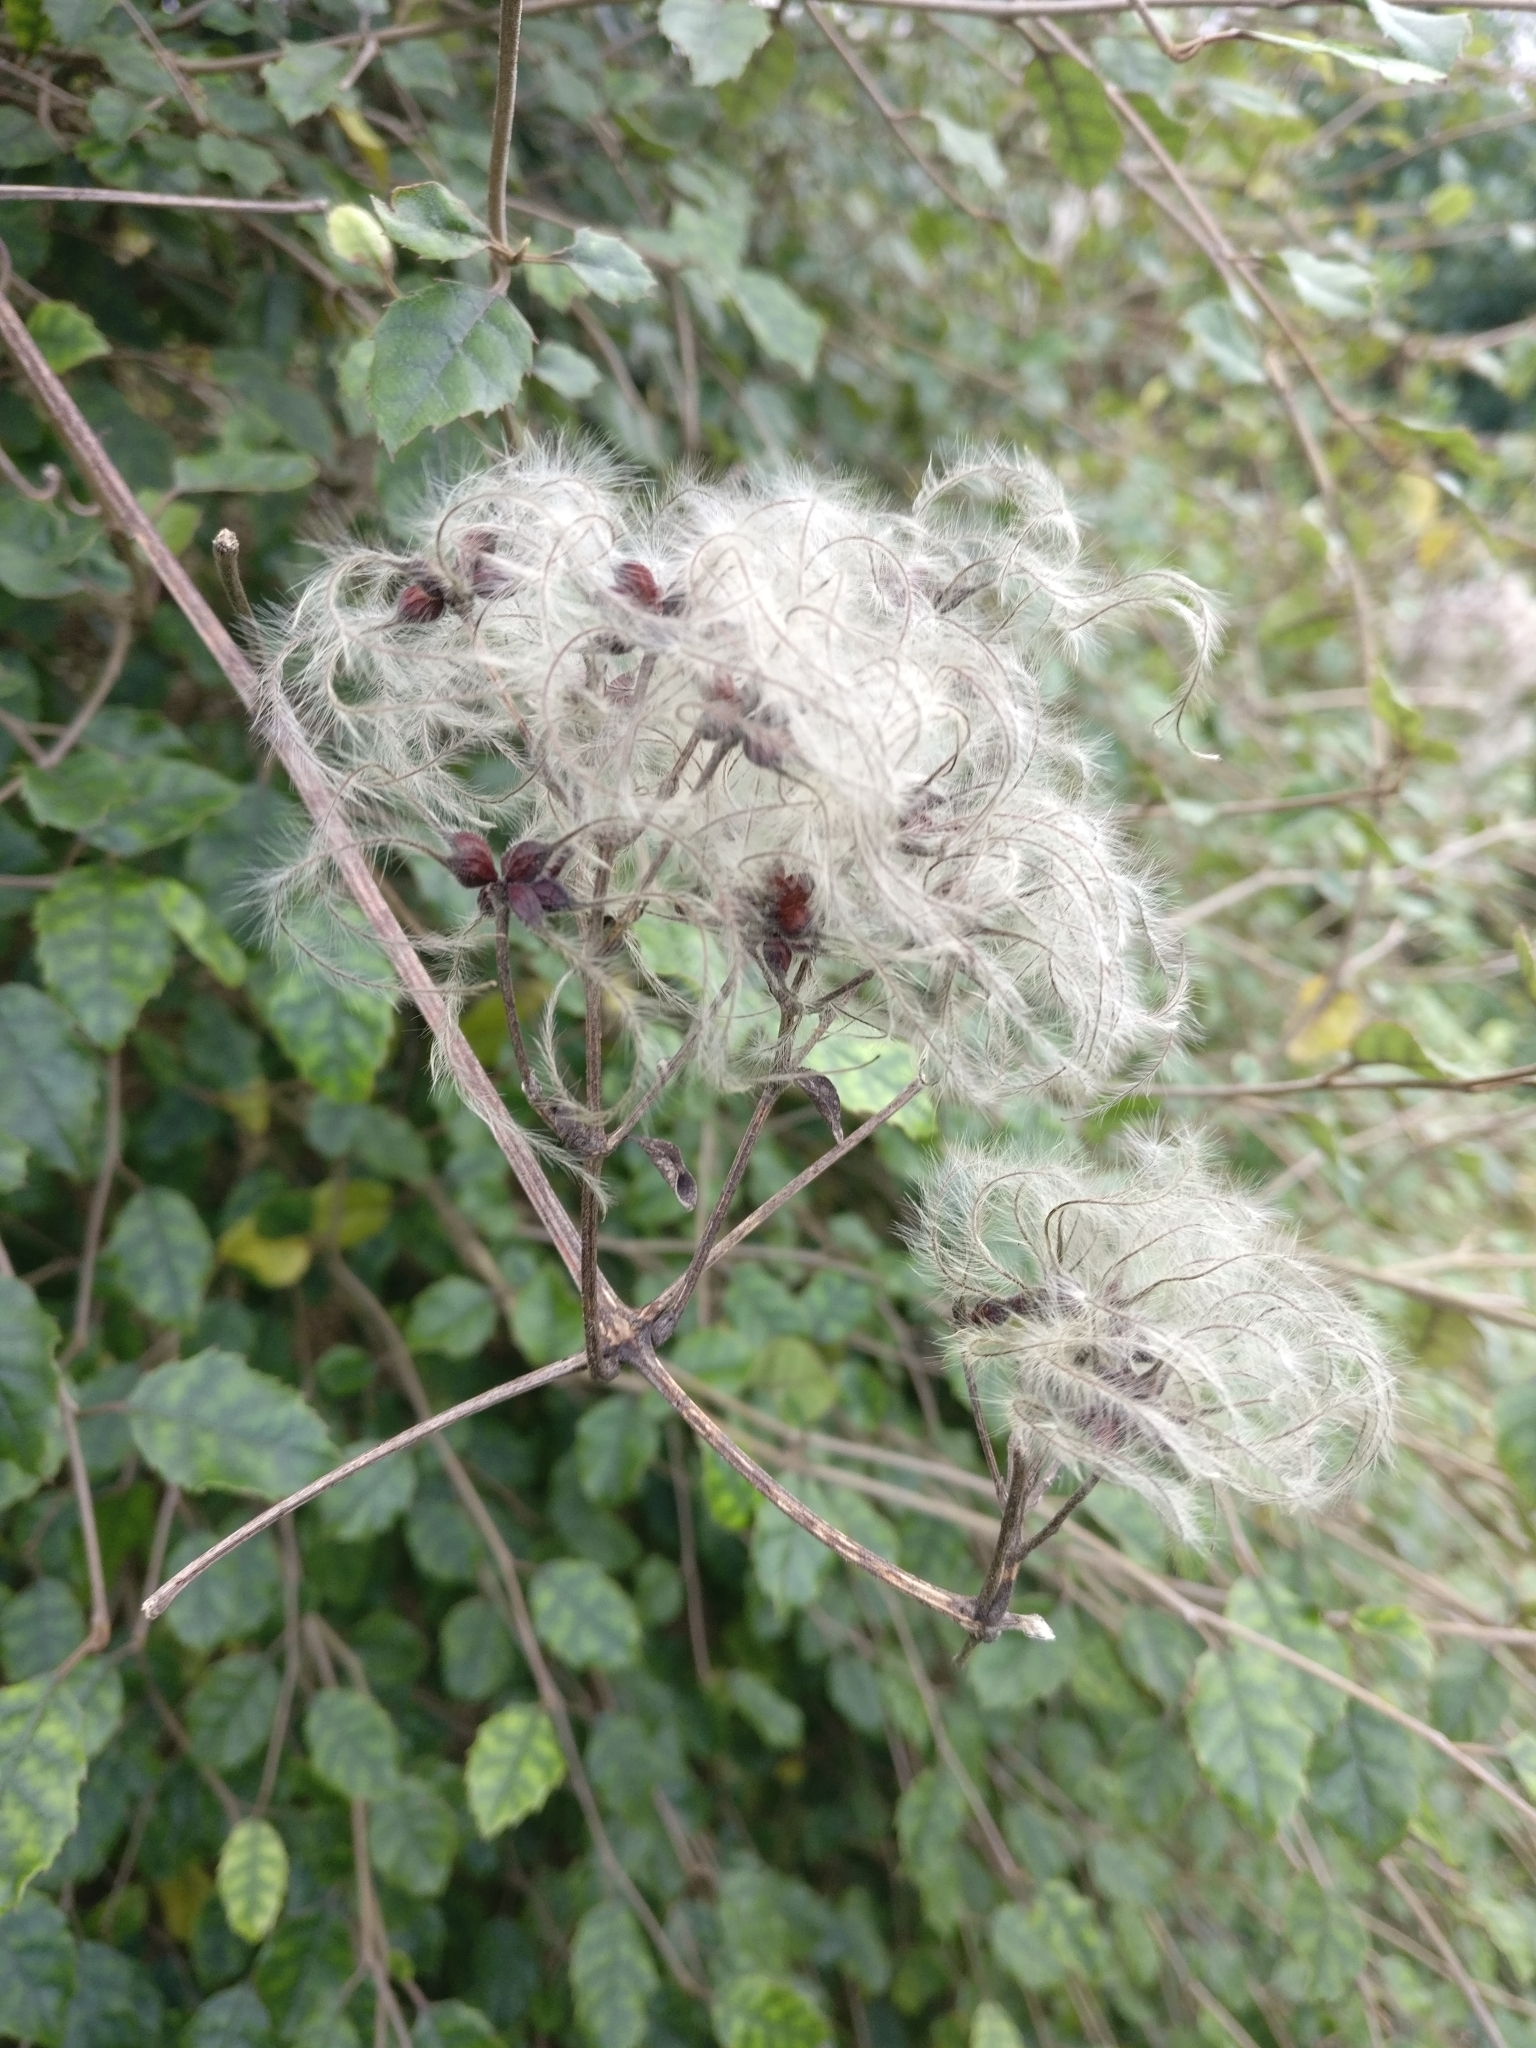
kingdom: Plantae
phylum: Tracheophyta
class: Magnoliopsida
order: Ranunculales
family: Ranunculaceae
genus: Clematis
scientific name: Clematis vitalba
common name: Evergreen clematis
